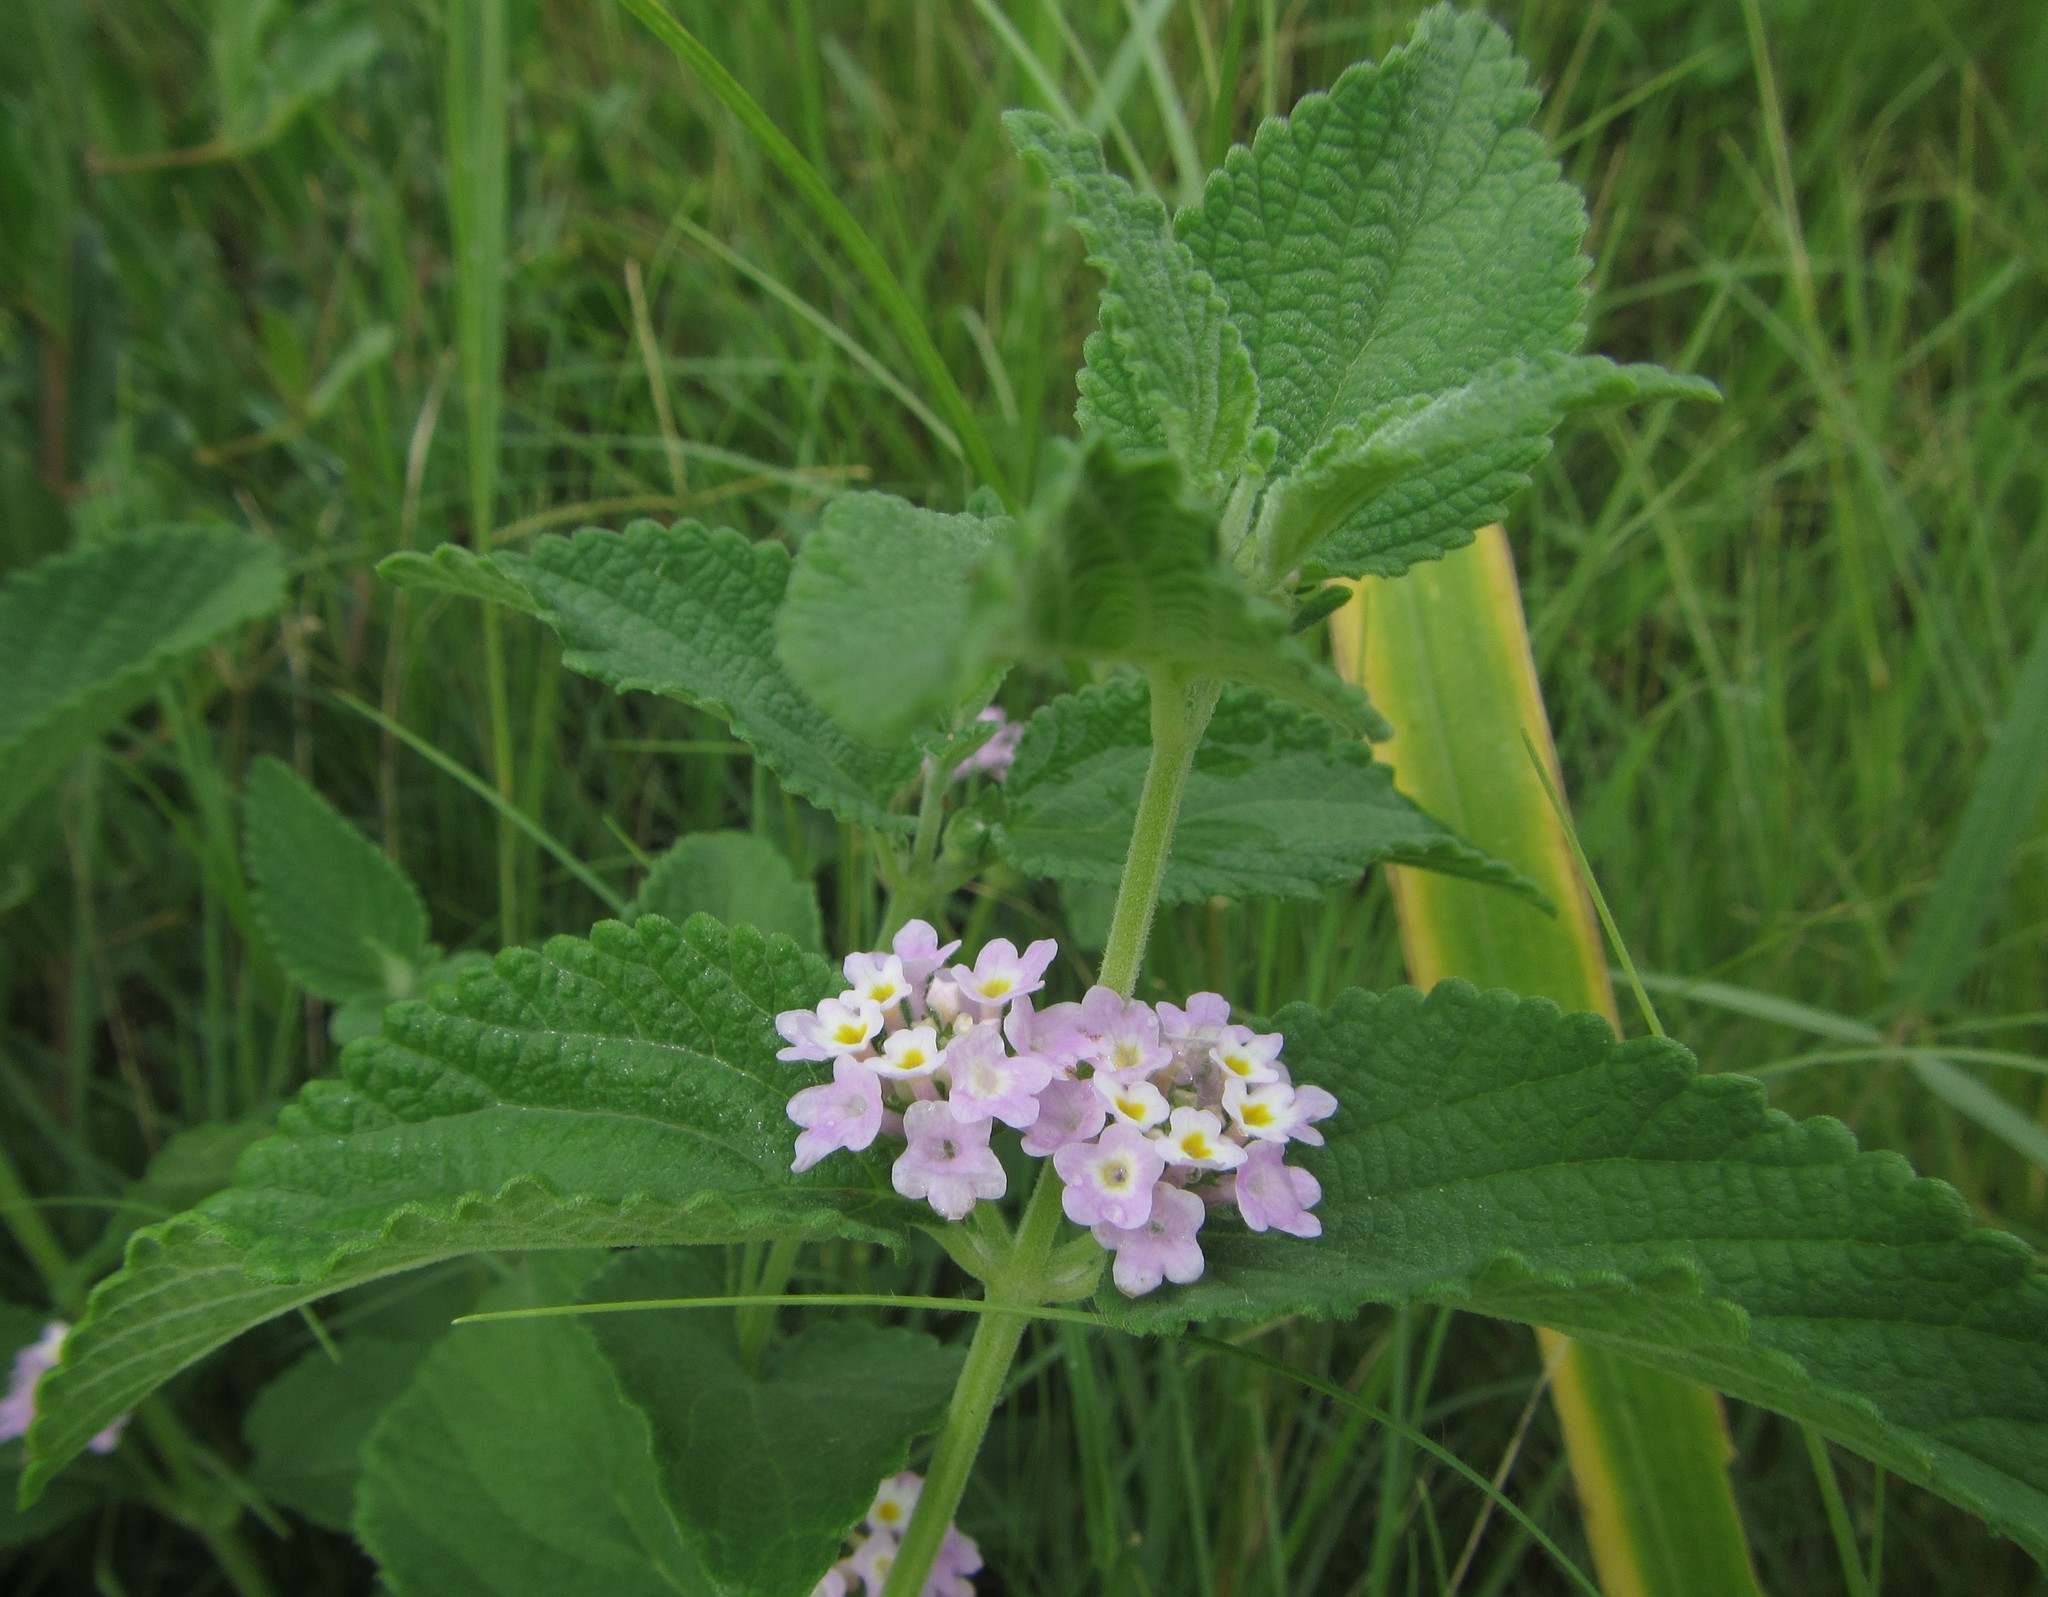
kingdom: Plantae
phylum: Tracheophyta
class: Magnoliopsida
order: Lamiales
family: Verbenaceae
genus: Lantana
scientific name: Lantana angolensis
